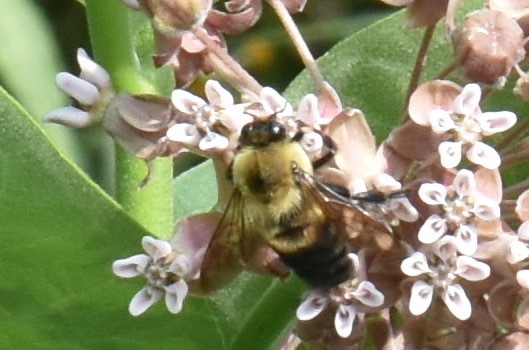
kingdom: Animalia
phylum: Arthropoda
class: Insecta
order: Hymenoptera
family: Apidae
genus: Bombus
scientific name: Bombus griseocollis
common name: Brown-belted bumble bee
